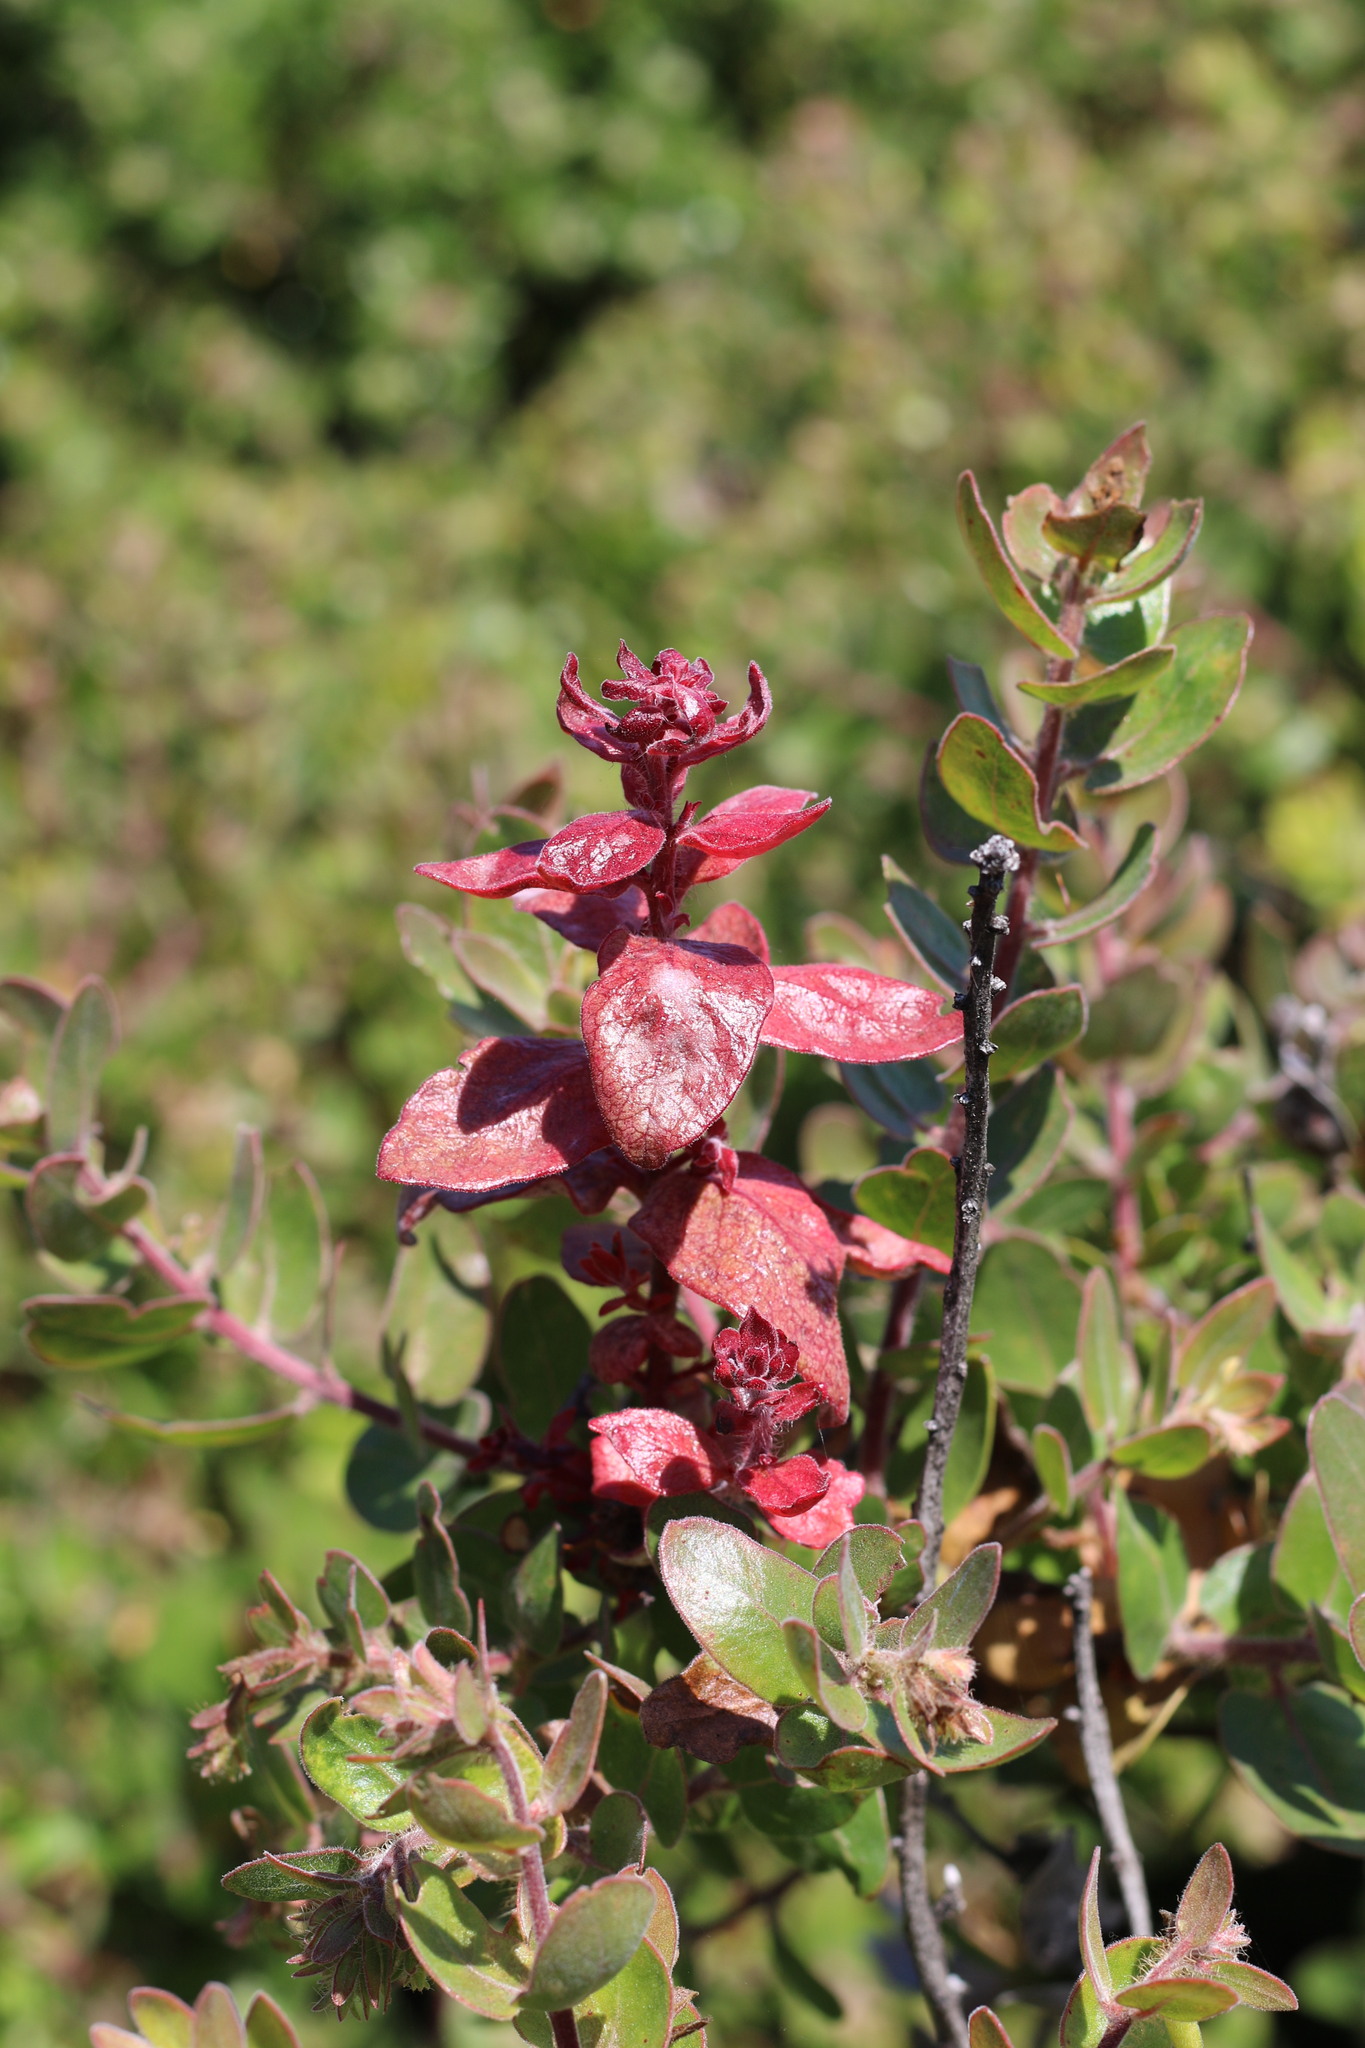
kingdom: Fungi
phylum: Basidiomycota
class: Exobasidiomycetes
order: Exobasidiales
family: Exobasidiaceae
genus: Exobasidium
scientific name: Exobasidium arctostaphyli
